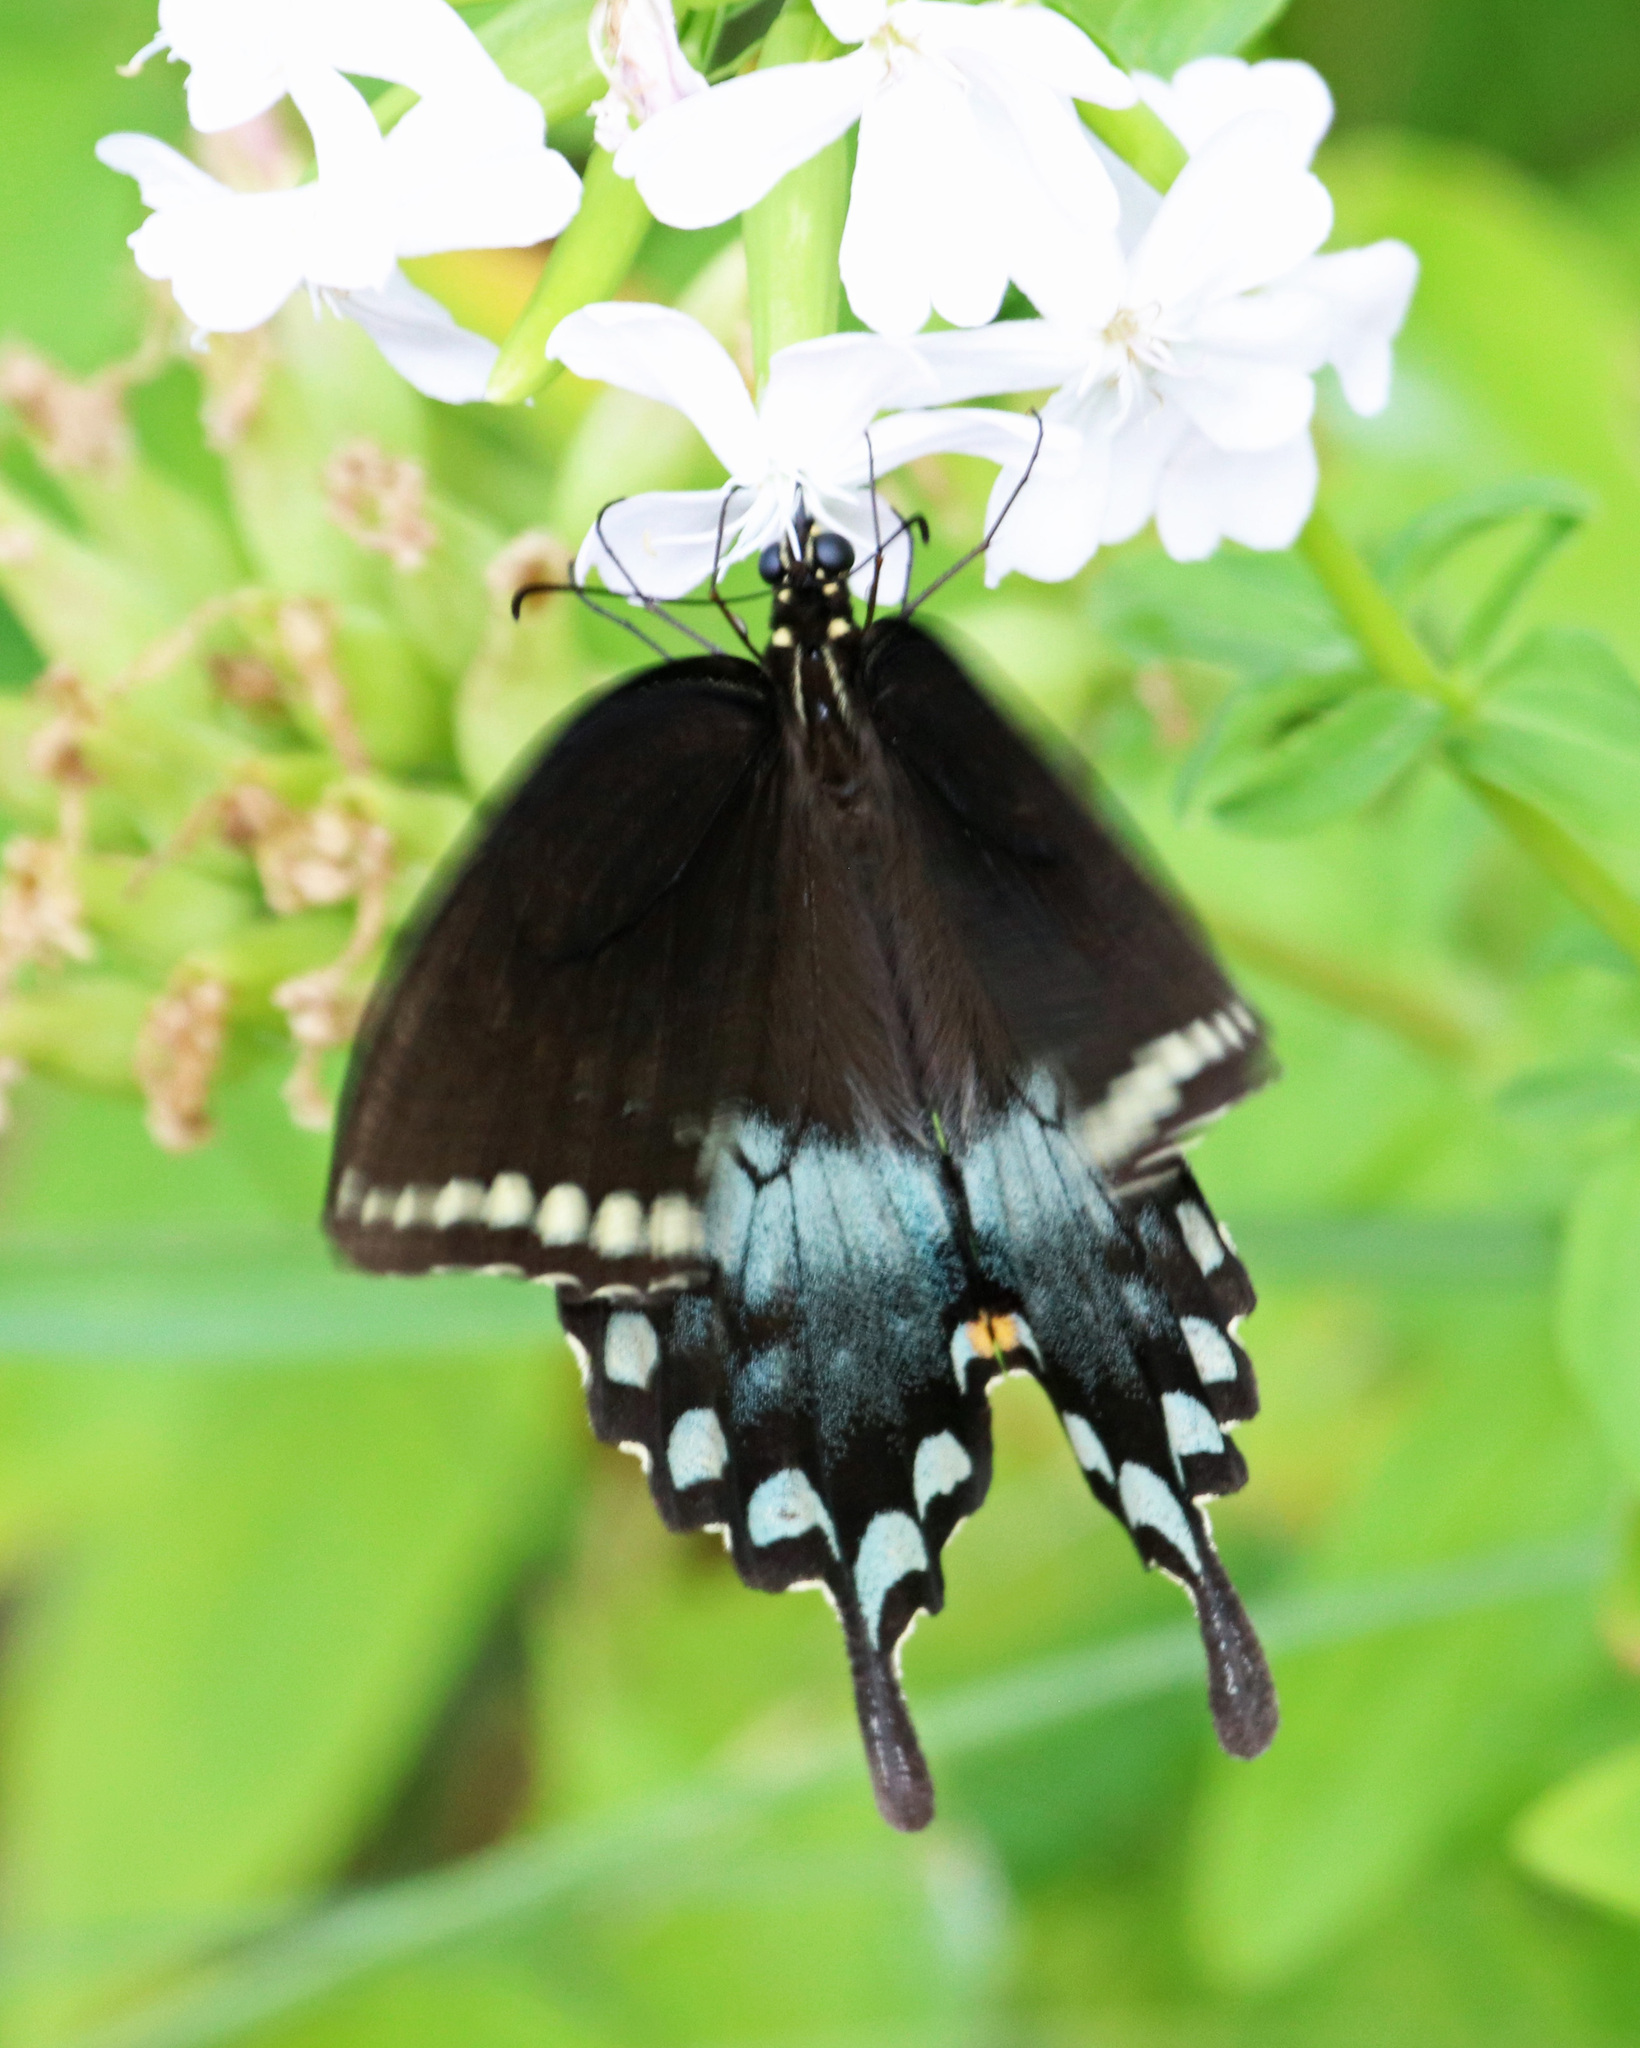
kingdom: Animalia
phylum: Arthropoda
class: Insecta
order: Lepidoptera
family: Papilionidae
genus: Papilio
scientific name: Papilio troilus
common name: Spicebush swallowtail
